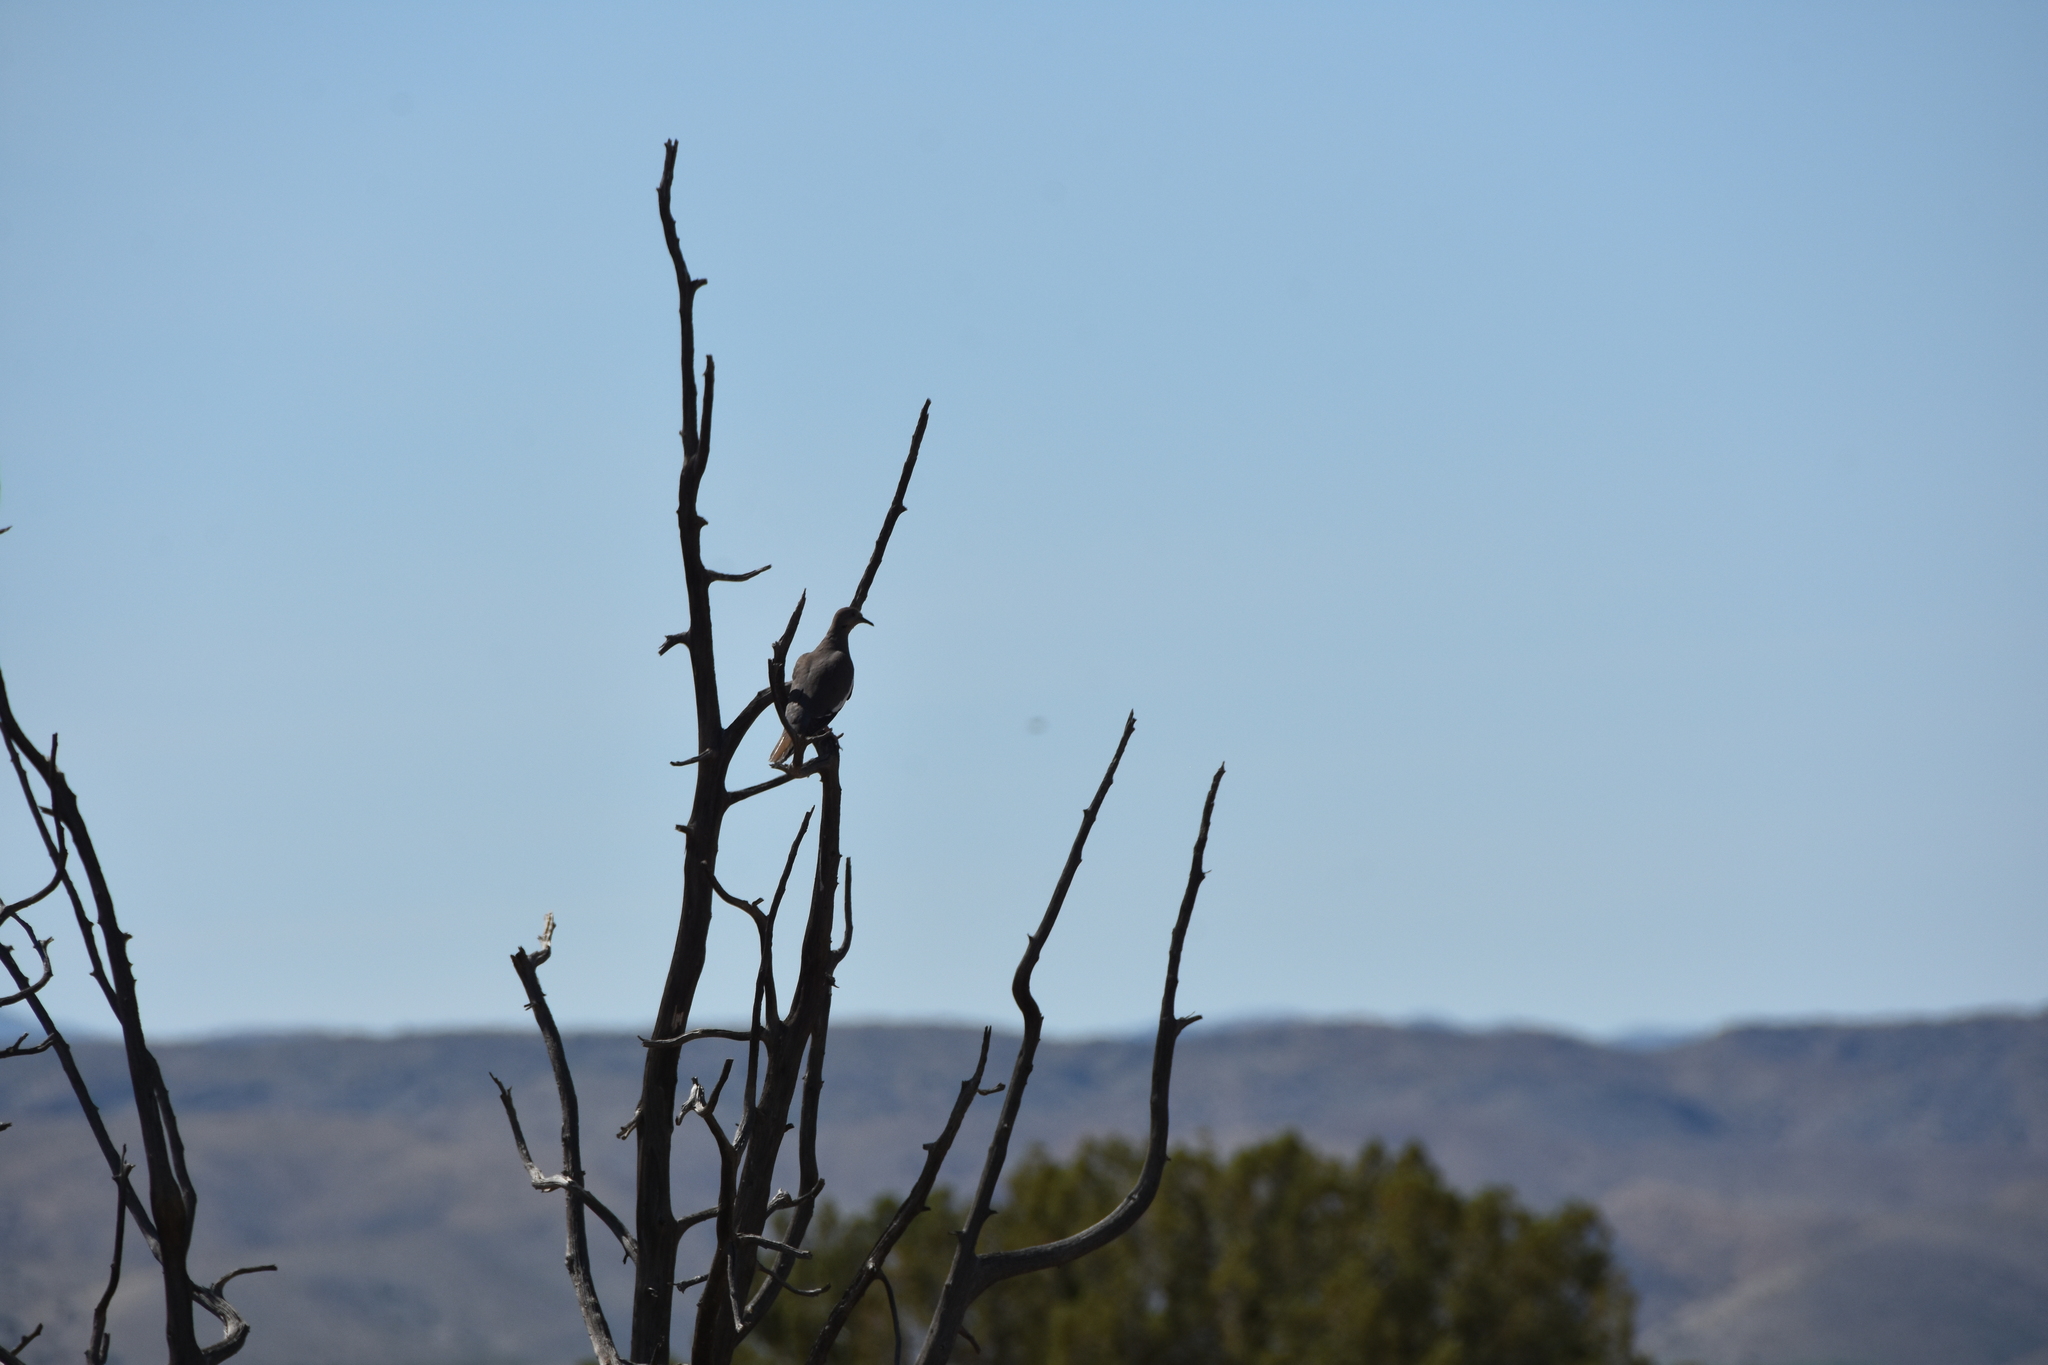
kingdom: Animalia
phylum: Chordata
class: Aves
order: Columbiformes
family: Columbidae
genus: Zenaida
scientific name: Zenaida asiatica
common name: White-winged dove
